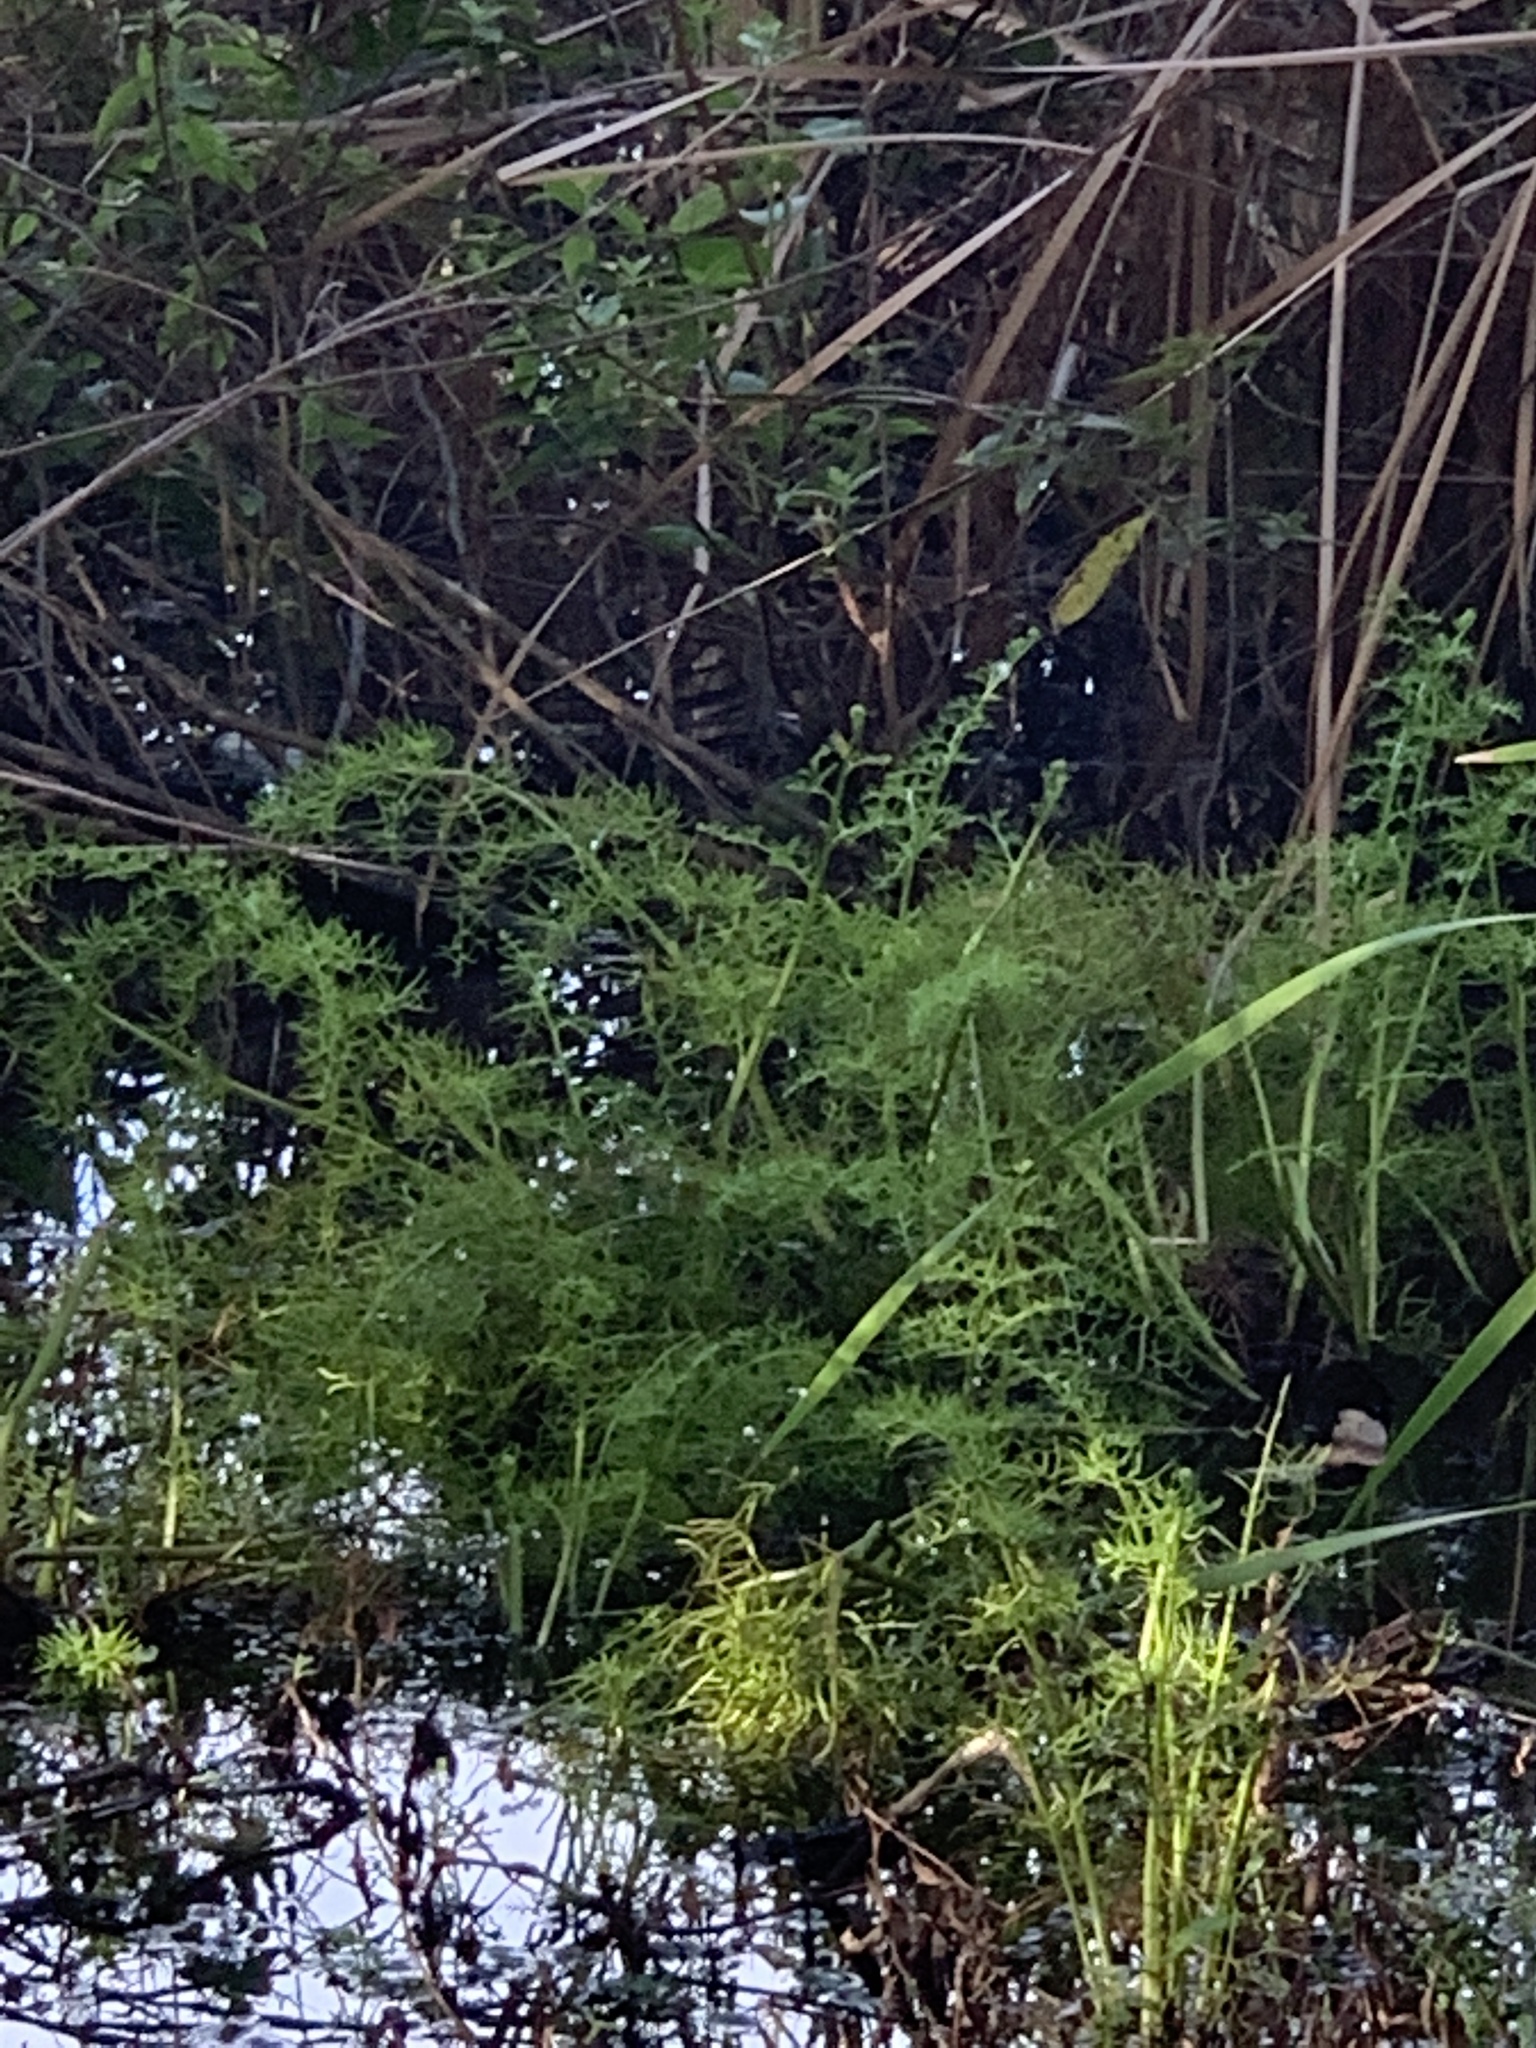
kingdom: Plantae
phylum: Tracheophyta
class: Polypodiopsida
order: Polypodiales
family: Pteridaceae
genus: Ceratopteris
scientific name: Ceratopteris thalictroides
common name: Water fern
